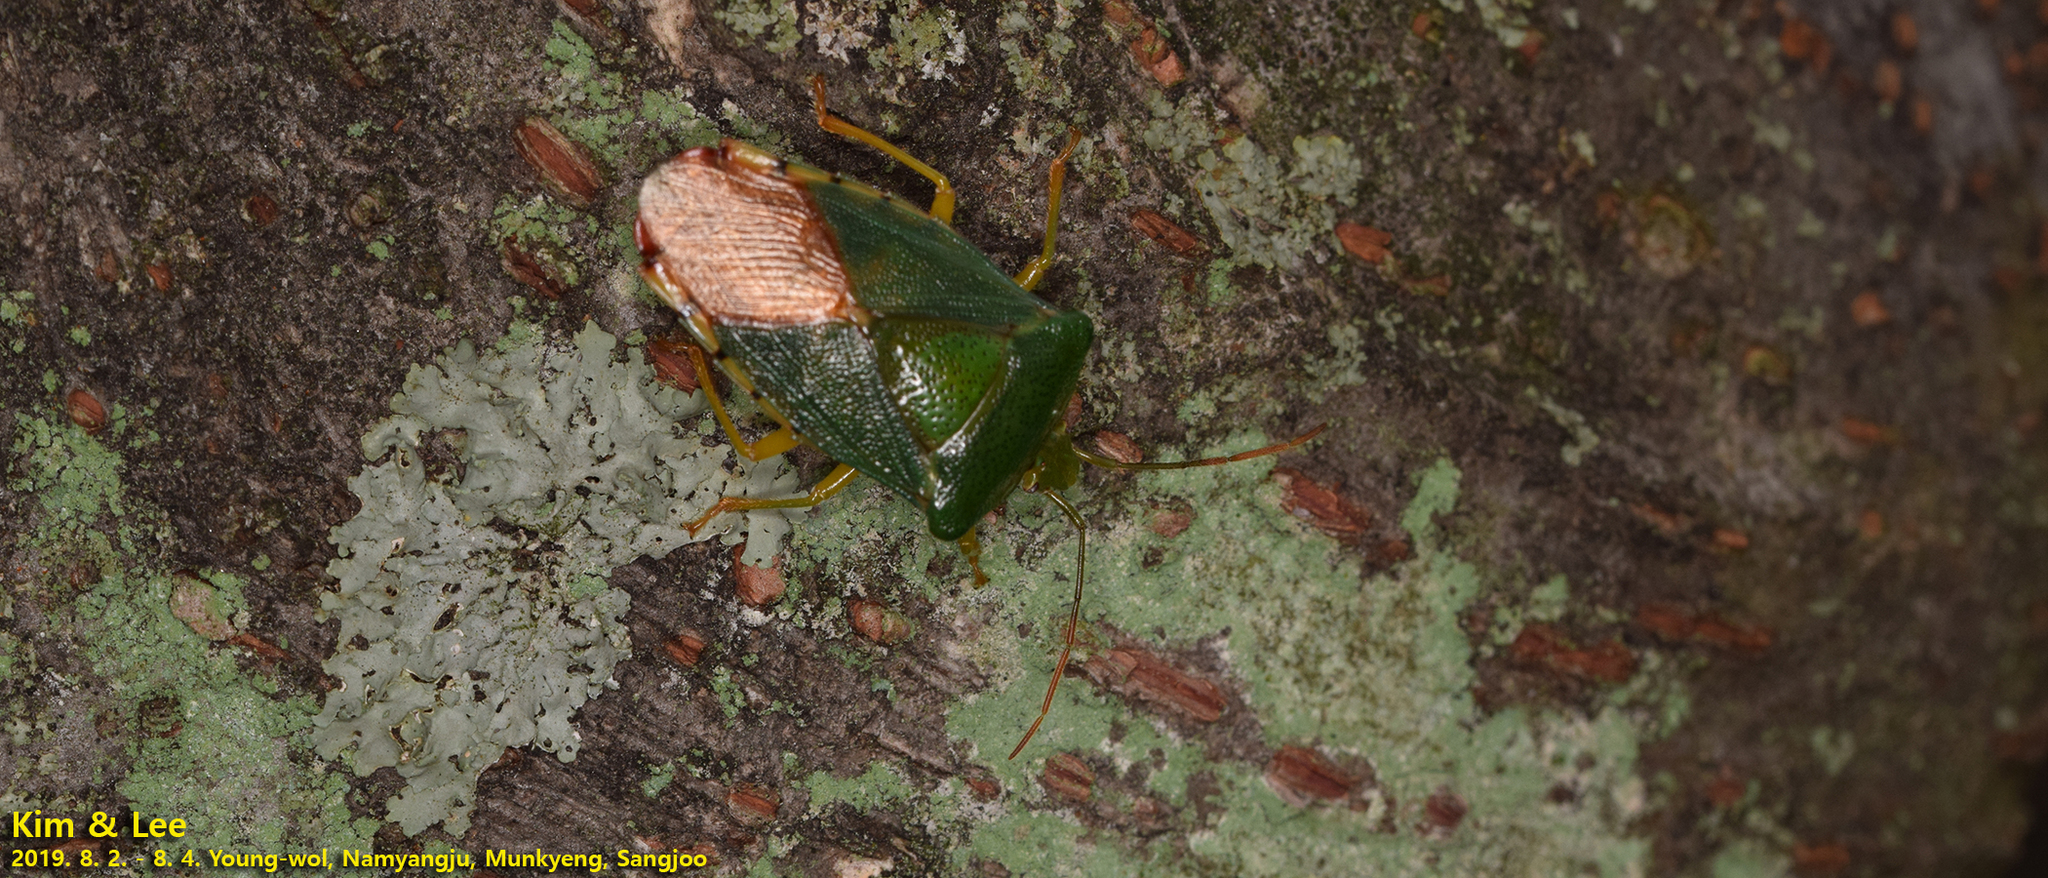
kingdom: Animalia
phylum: Arthropoda
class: Insecta
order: Hemiptera
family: Acanthosomatidae
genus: Acanthosoma
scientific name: Acanthosoma crassicaudum
